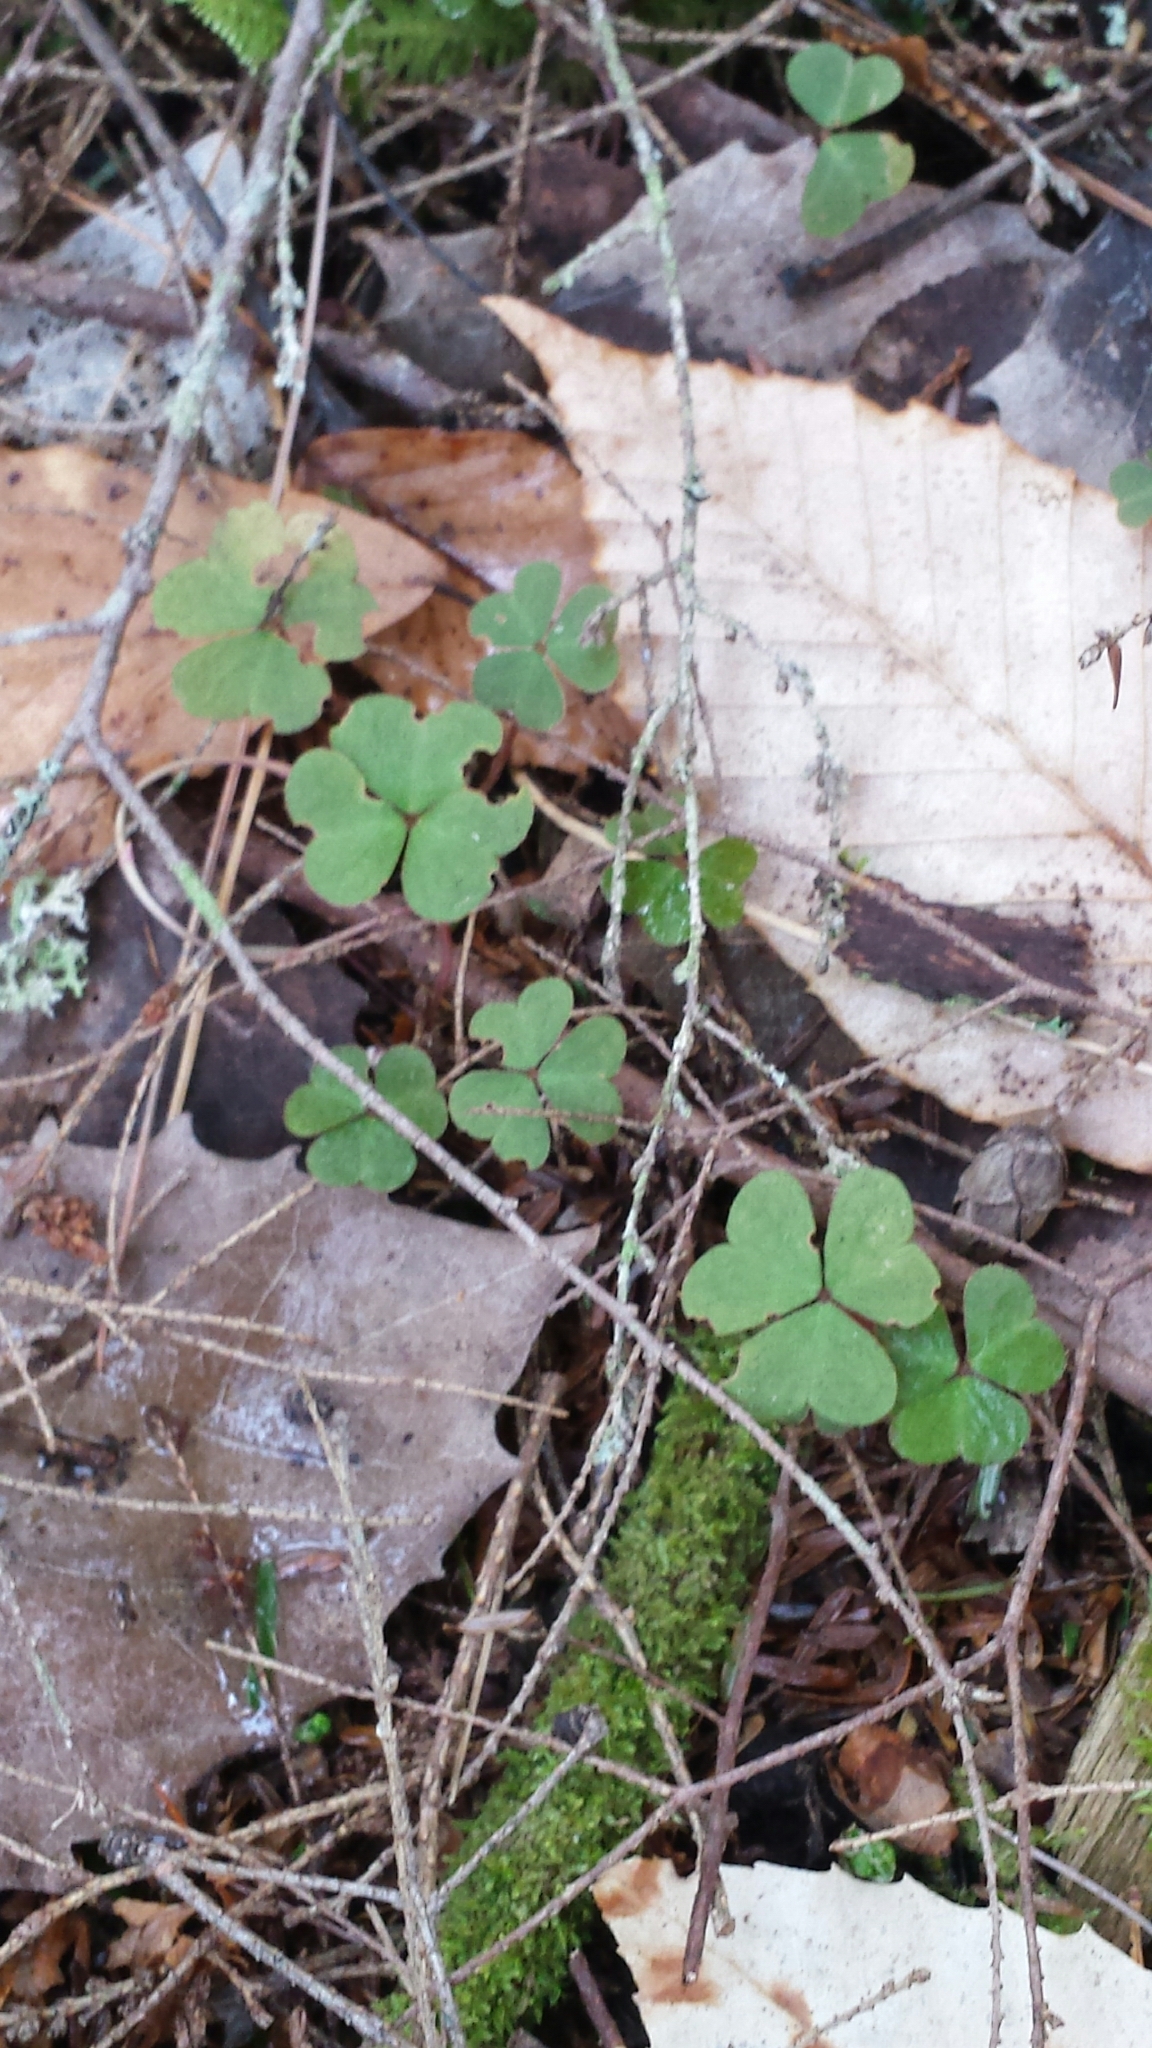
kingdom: Plantae
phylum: Tracheophyta
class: Magnoliopsida
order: Oxalidales
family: Oxalidaceae
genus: Oxalis
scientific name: Oxalis montana
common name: American wood-sorrel
